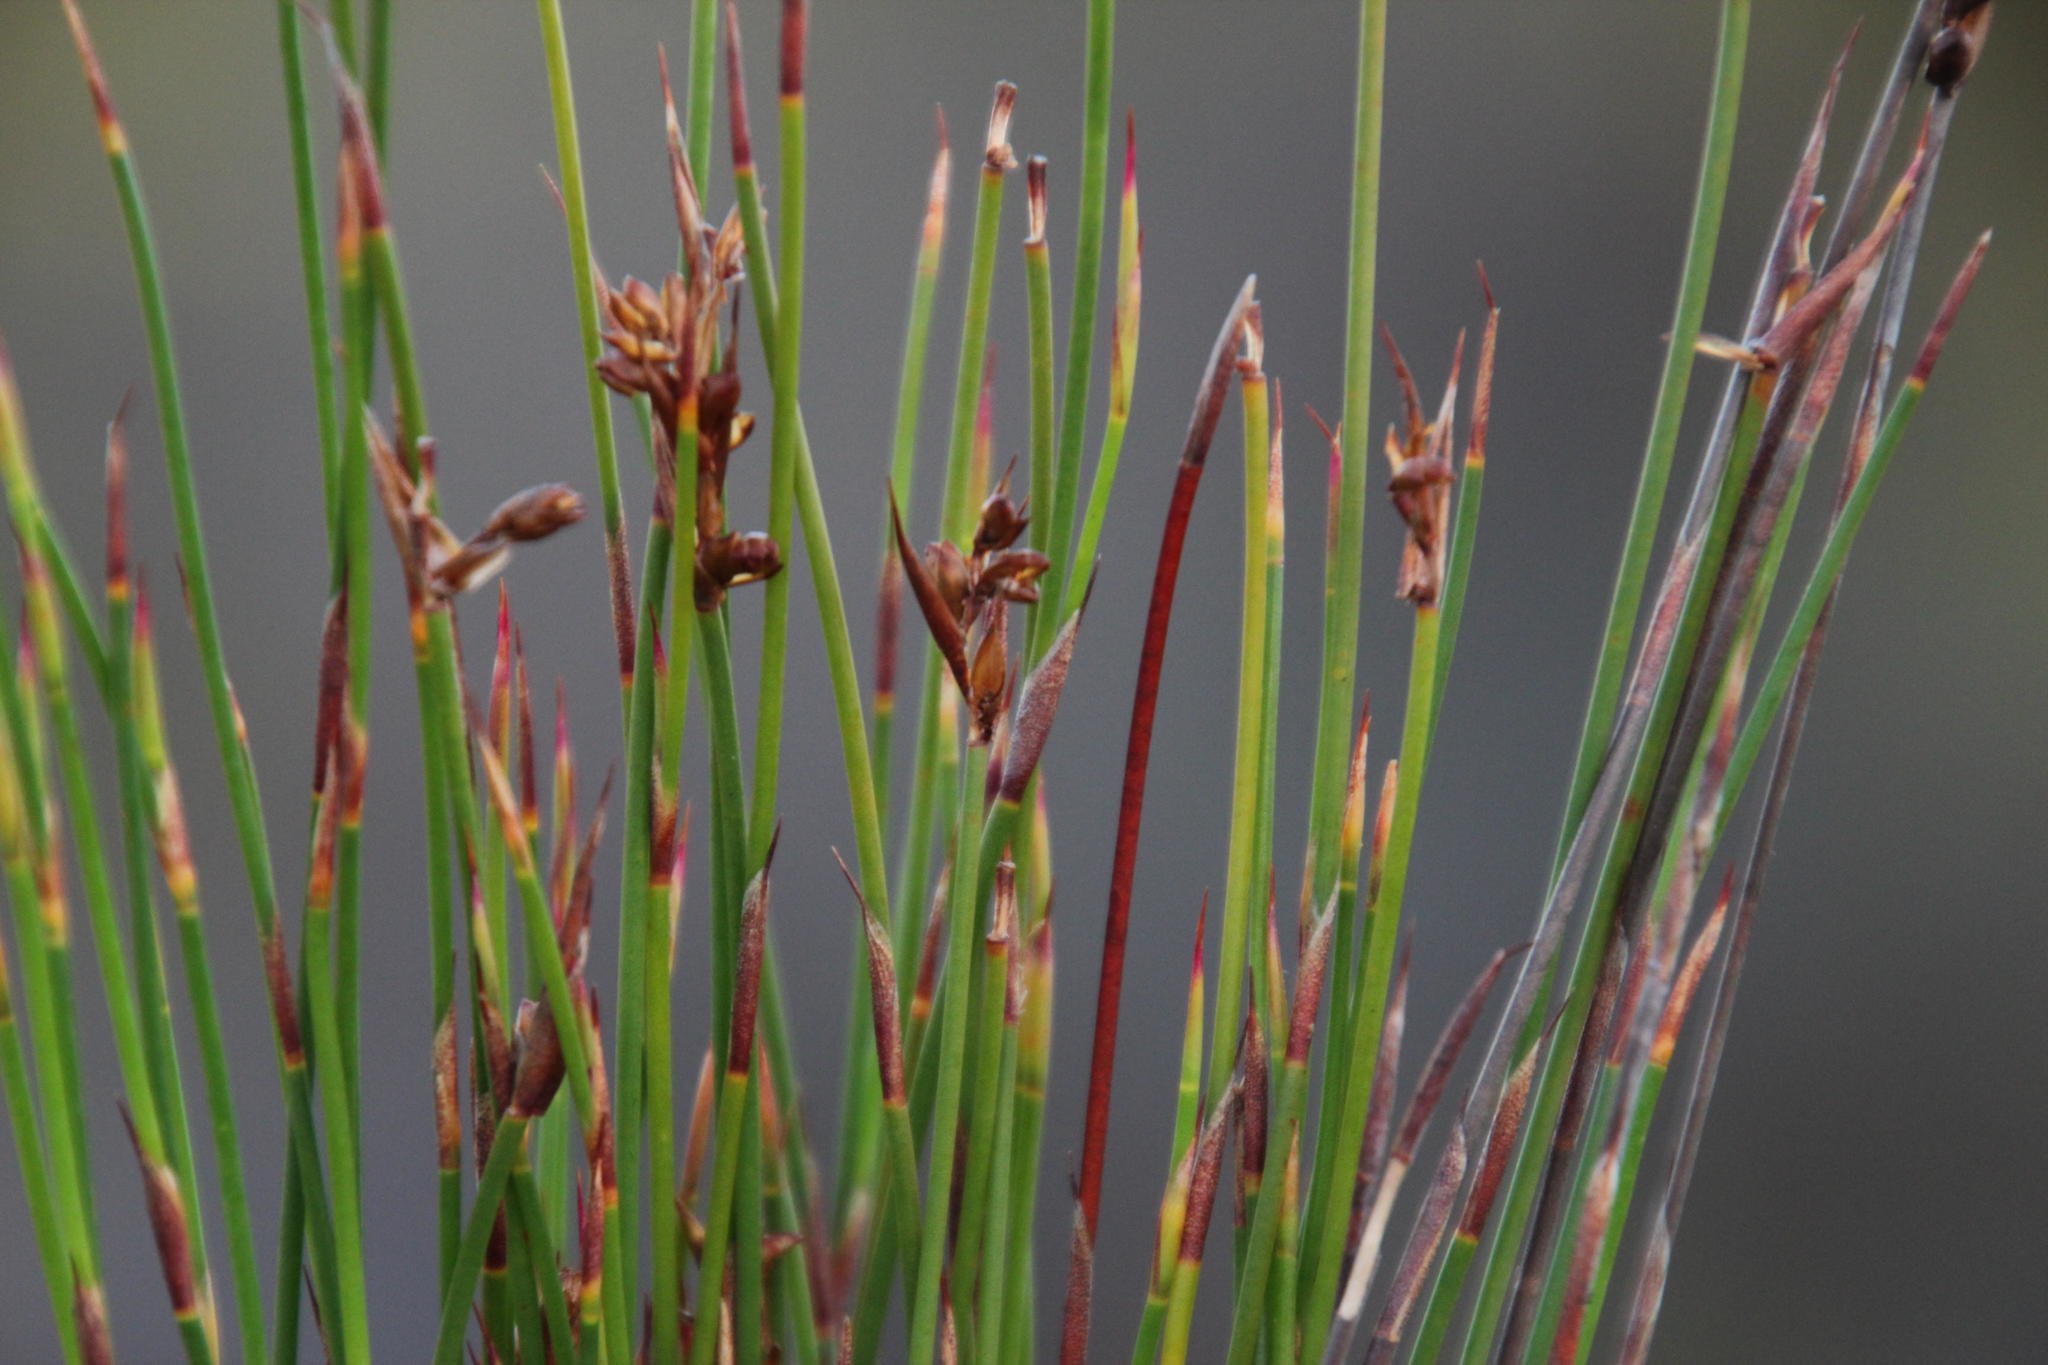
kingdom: Plantae
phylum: Tracheophyta
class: Liliopsida
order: Poales
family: Restionaceae
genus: Restio
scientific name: Restio eleocharis
